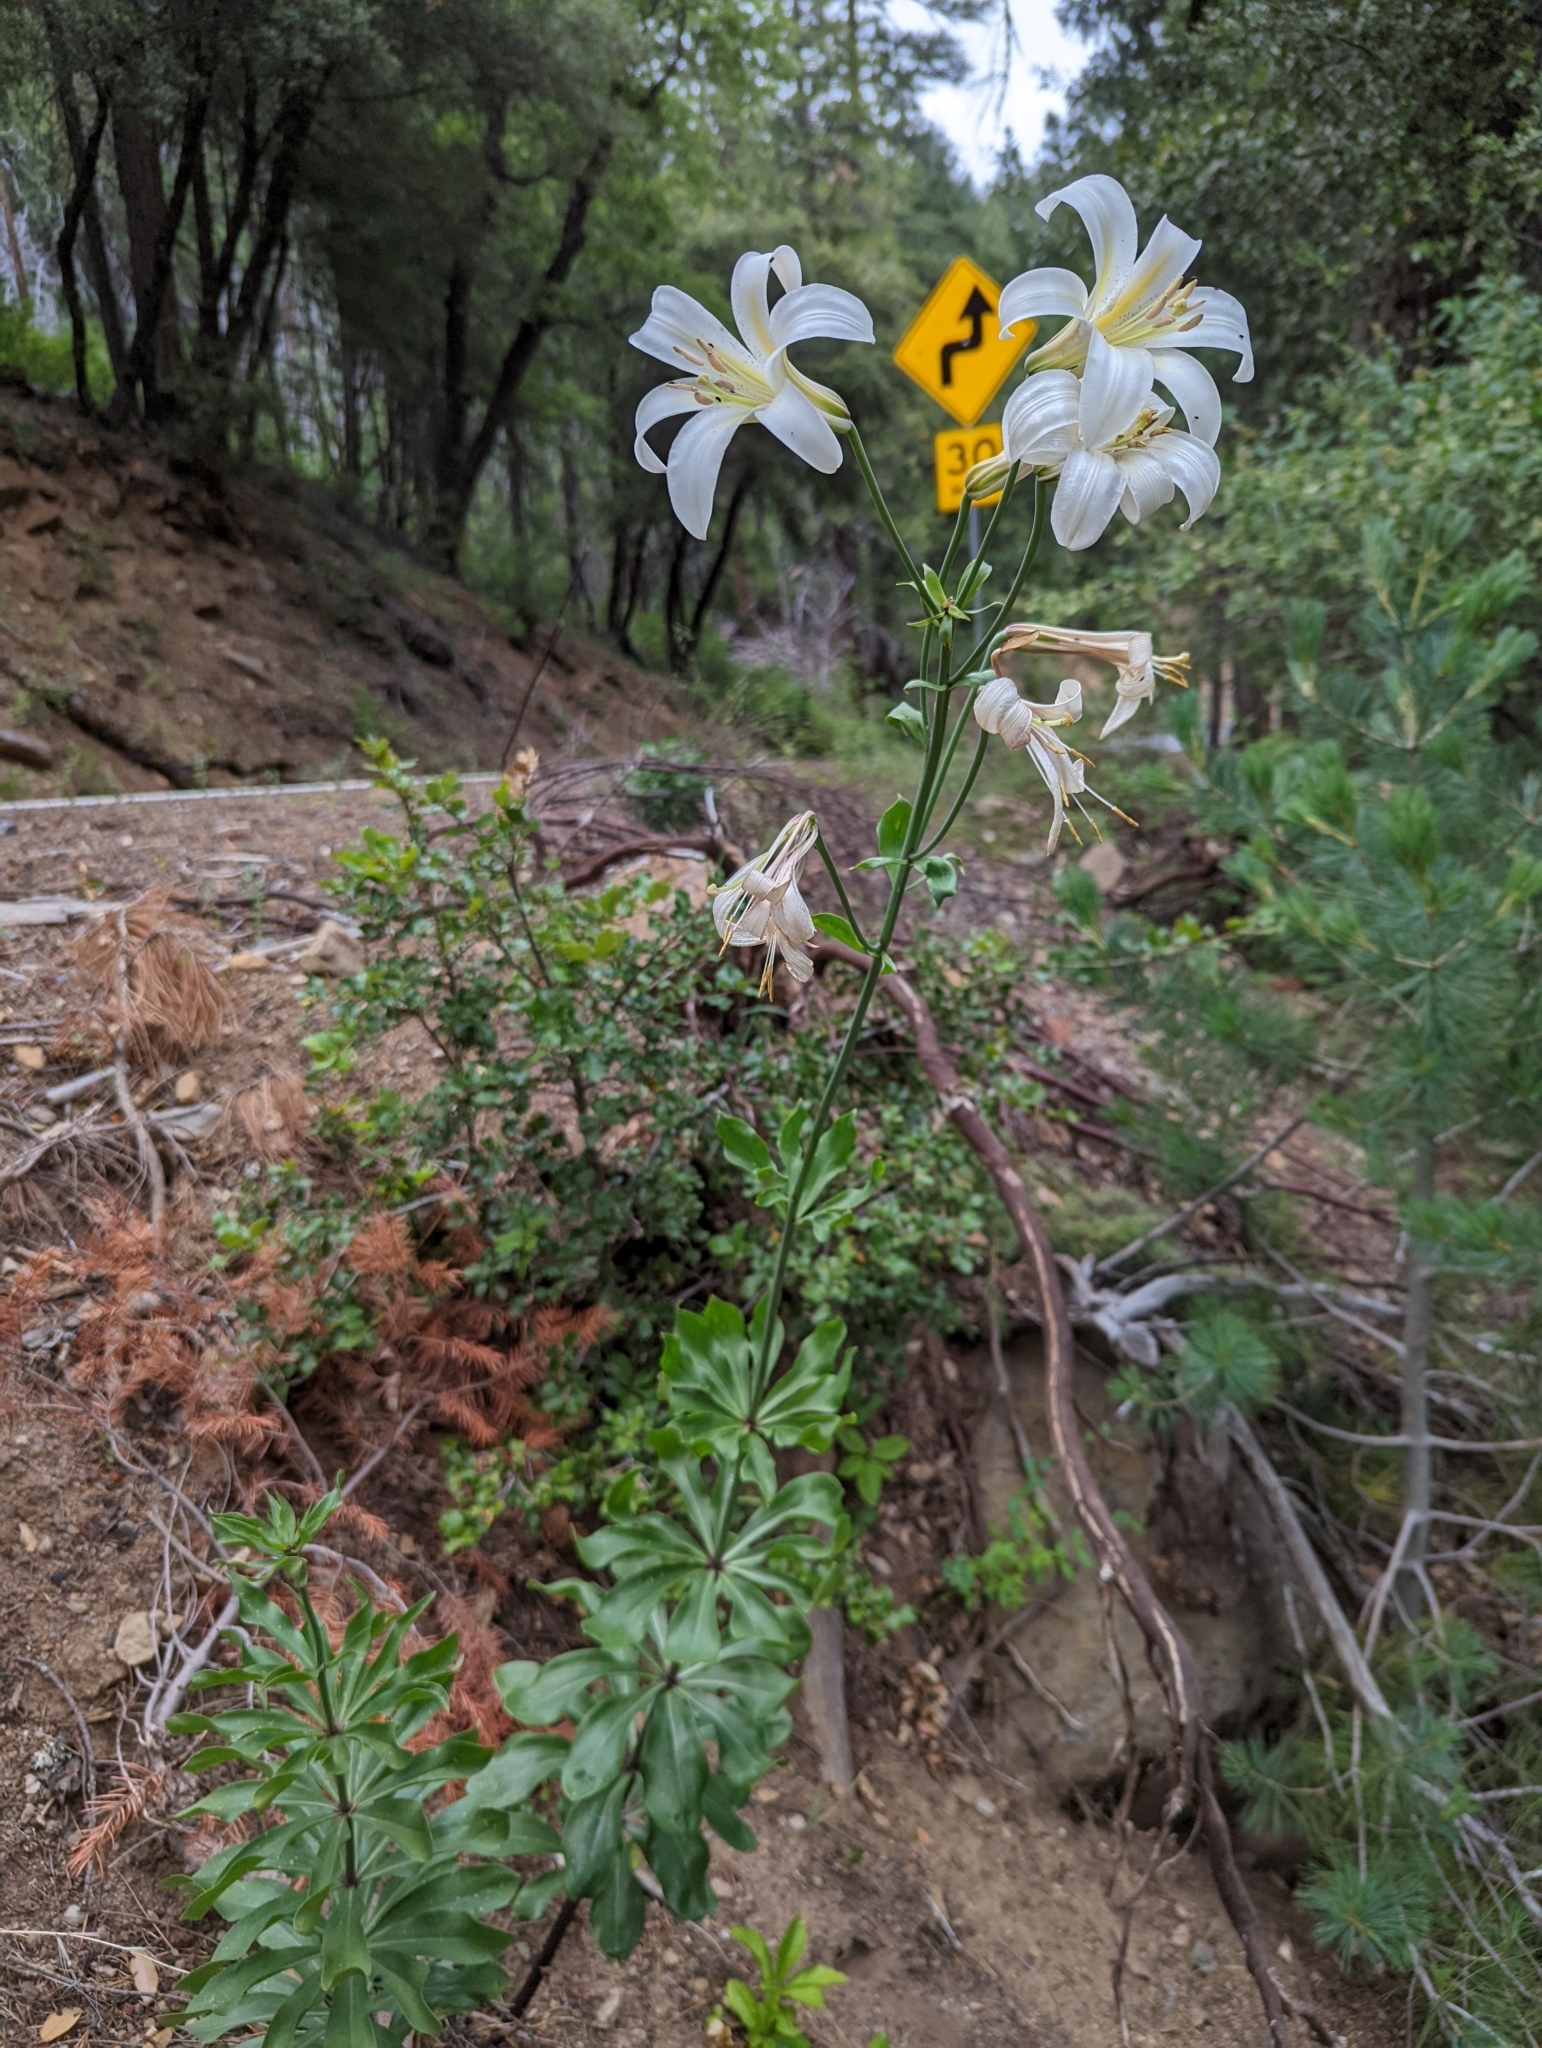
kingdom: Plantae
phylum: Tracheophyta
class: Liliopsida
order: Liliales
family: Liliaceae
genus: Lilium
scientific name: Lilium washingtonianum
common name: Washington lily
